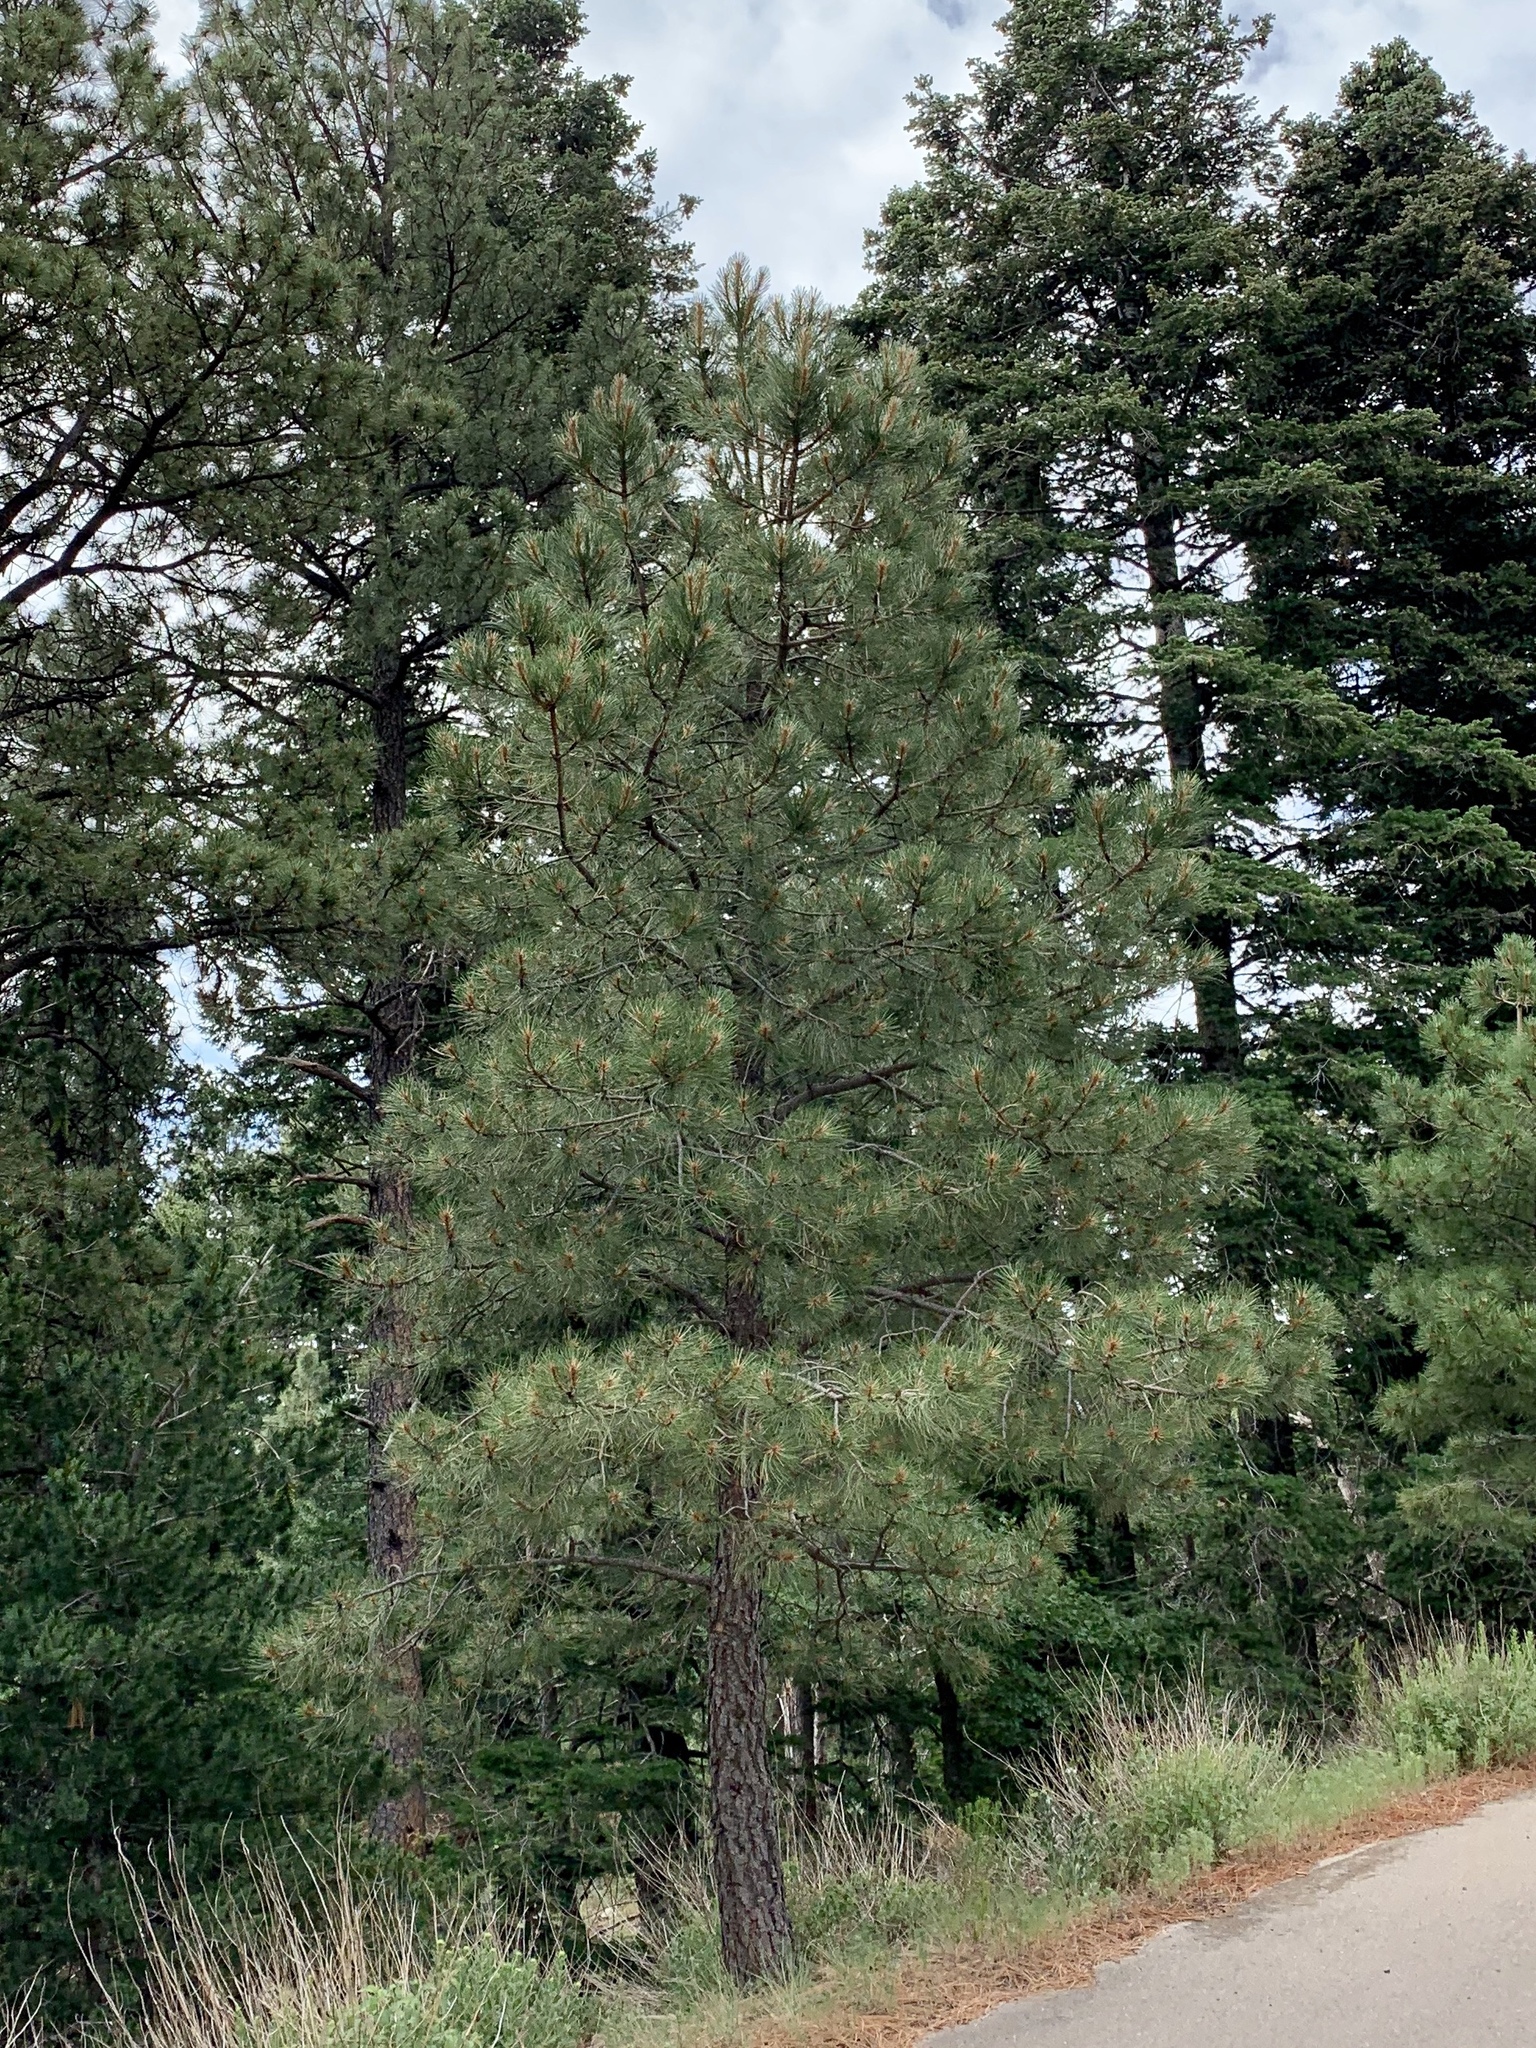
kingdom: Plantae
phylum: Tracheophyta
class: Pinopsida
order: Pinales
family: Pinaceae
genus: Pinus
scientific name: Pinus ponderosa
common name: Western yellow-pine
